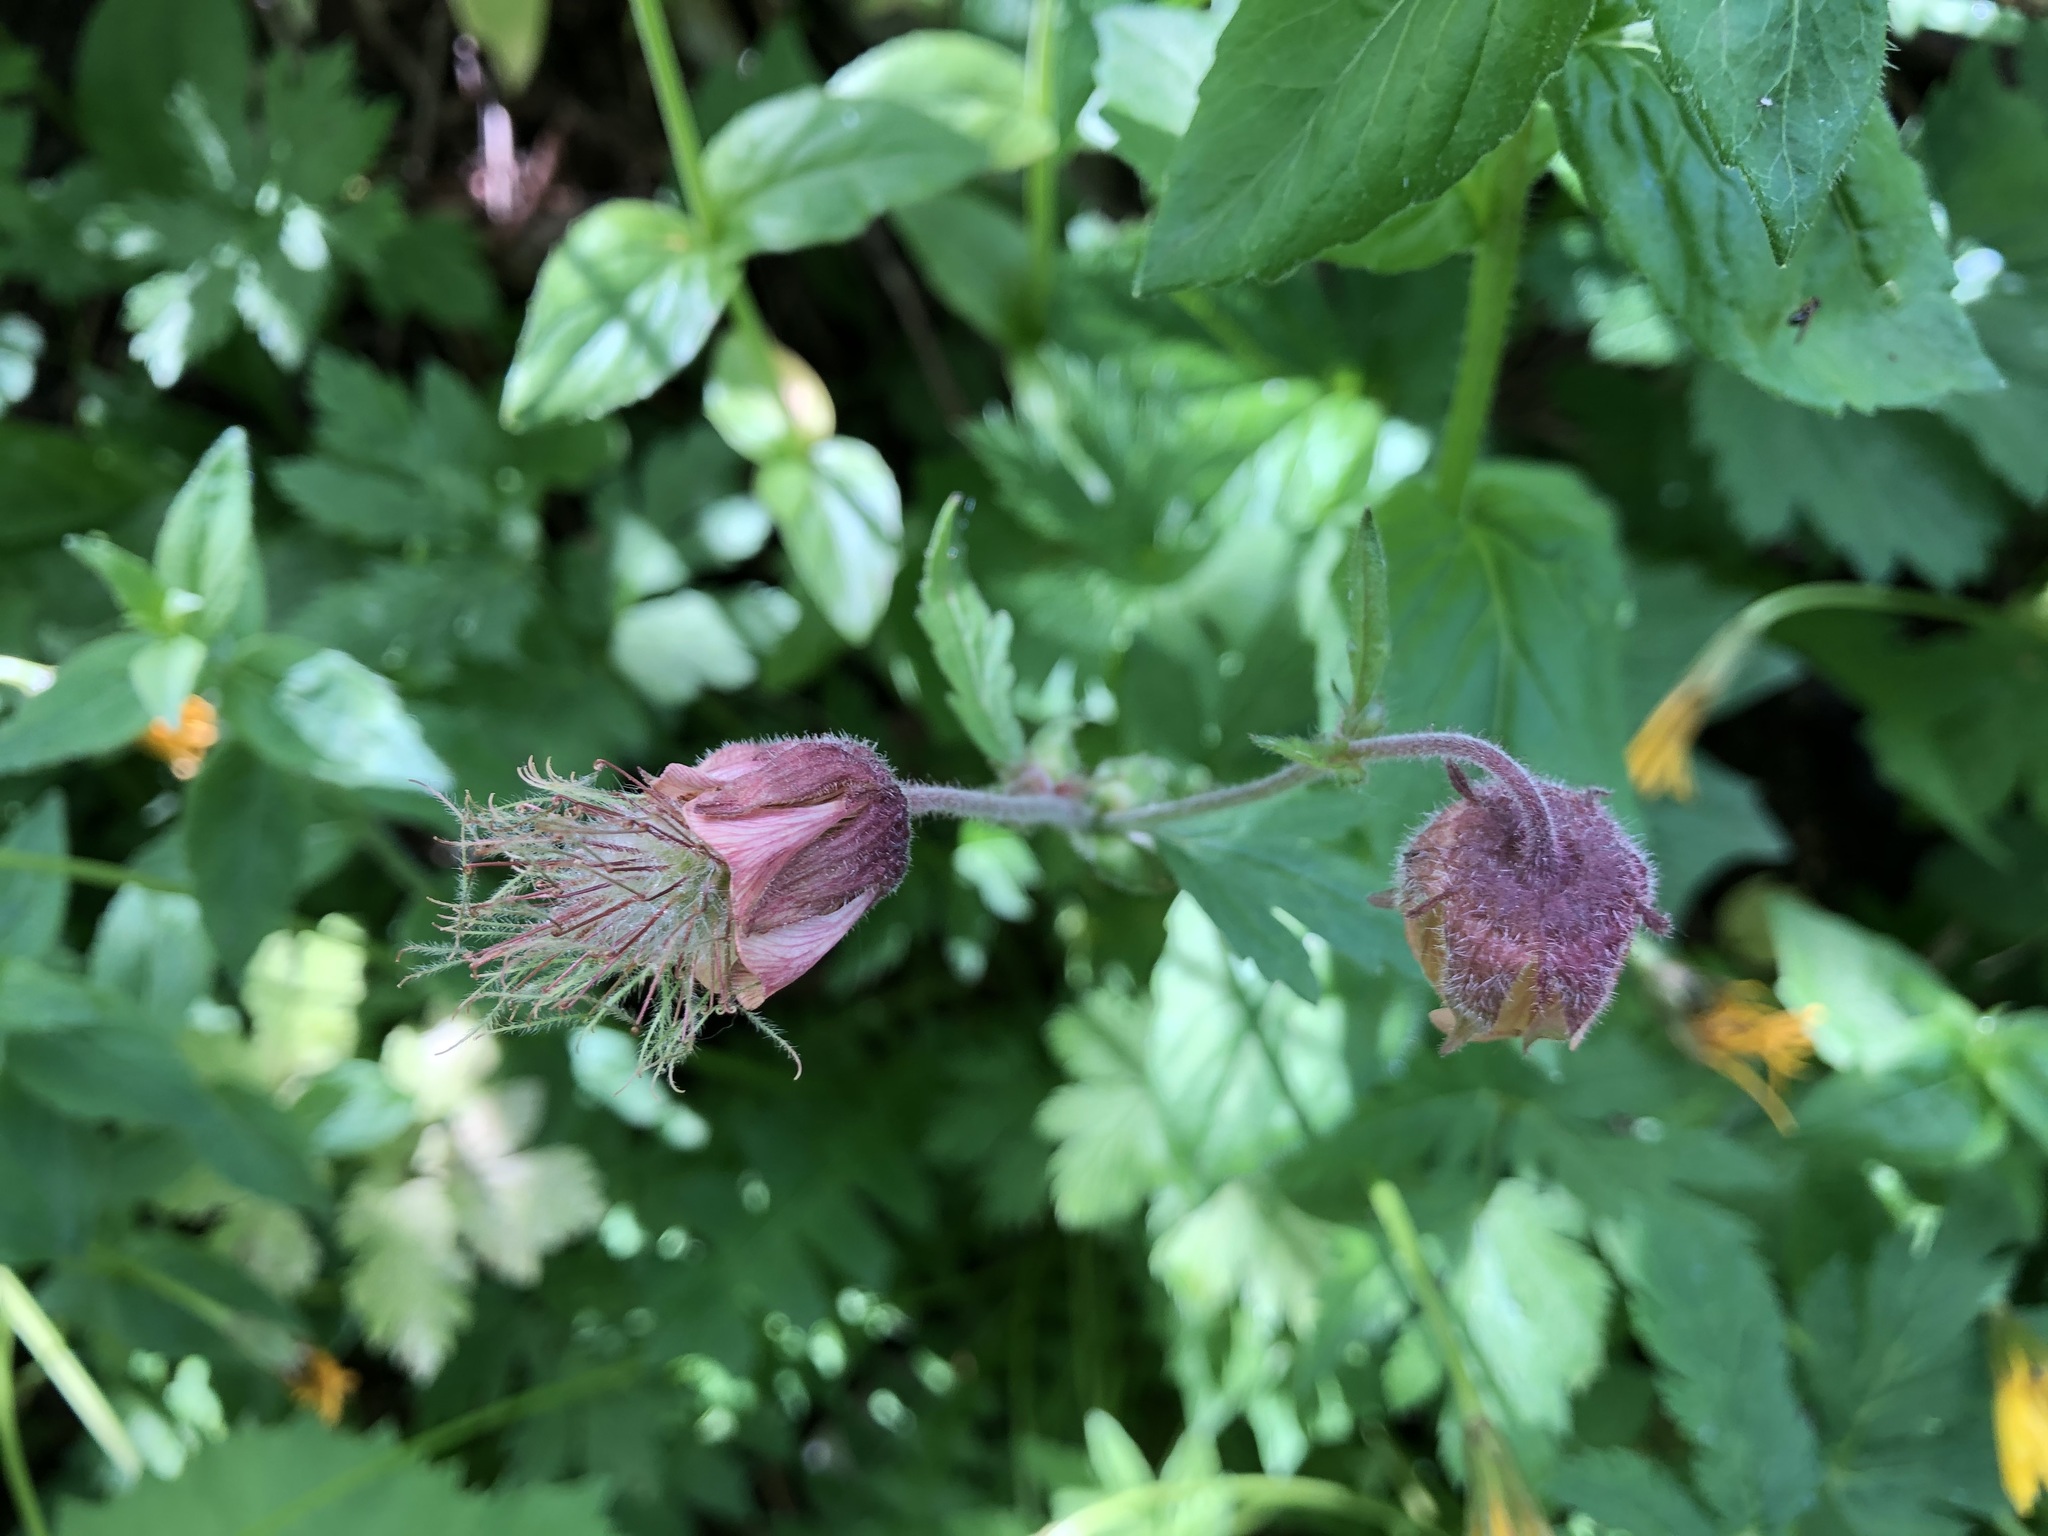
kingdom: Plantae
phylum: Tracheophyta
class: Magnoliopsida
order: Rosales
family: Rosaceae
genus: Geum
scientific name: Geum rivale
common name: Water avens
